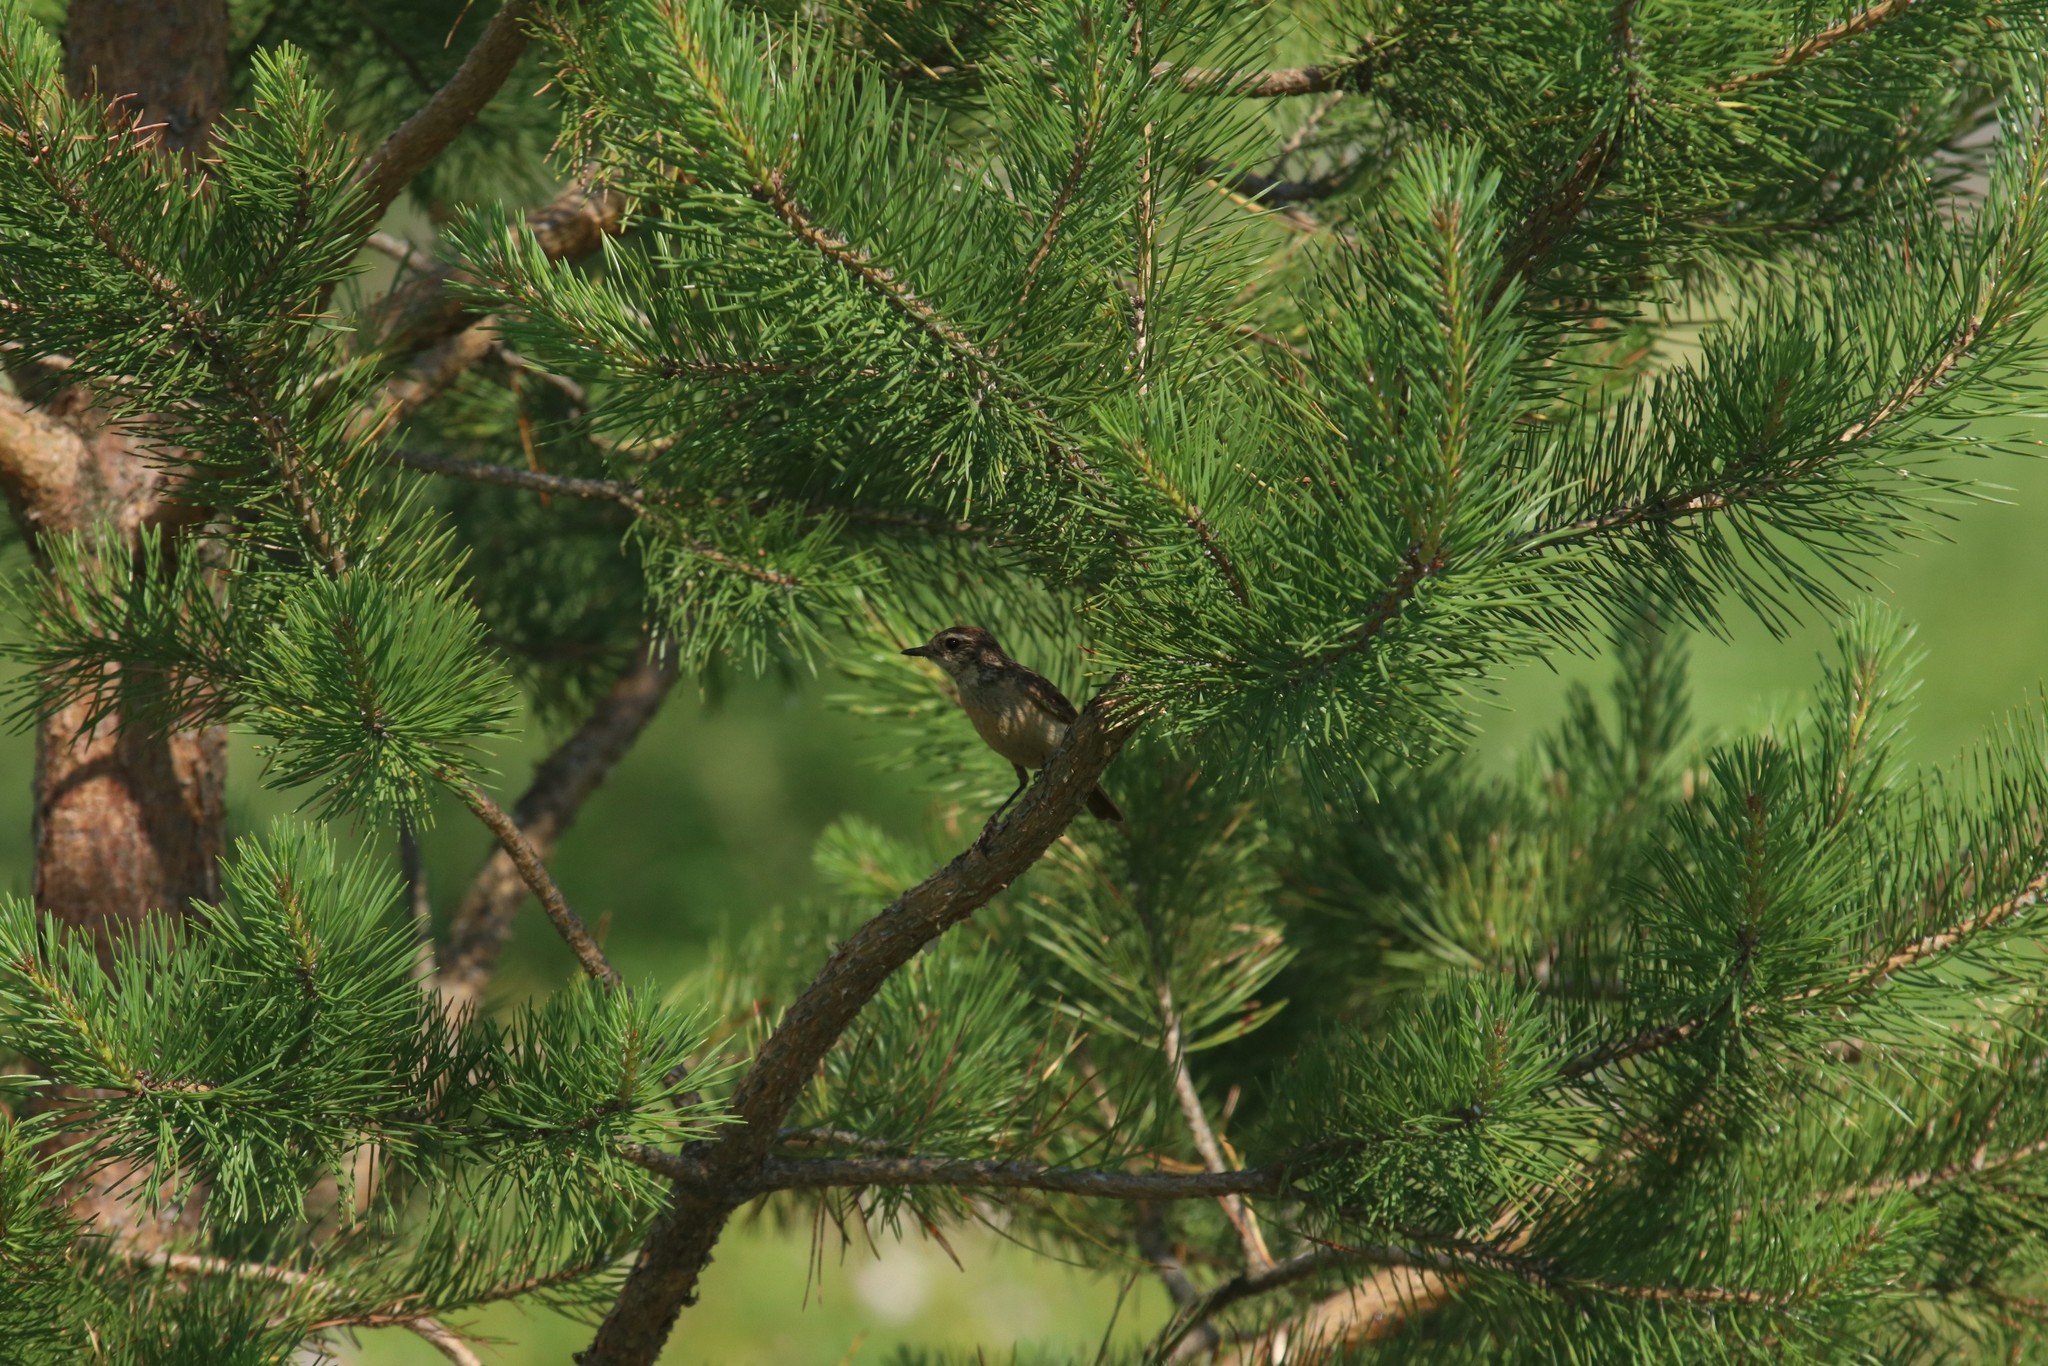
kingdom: Plantae
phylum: Tracheophyta
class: Pinopsida
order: Pinales
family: Pinaceae
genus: Pinus
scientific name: Pinus sylvestris
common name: Scots pine
